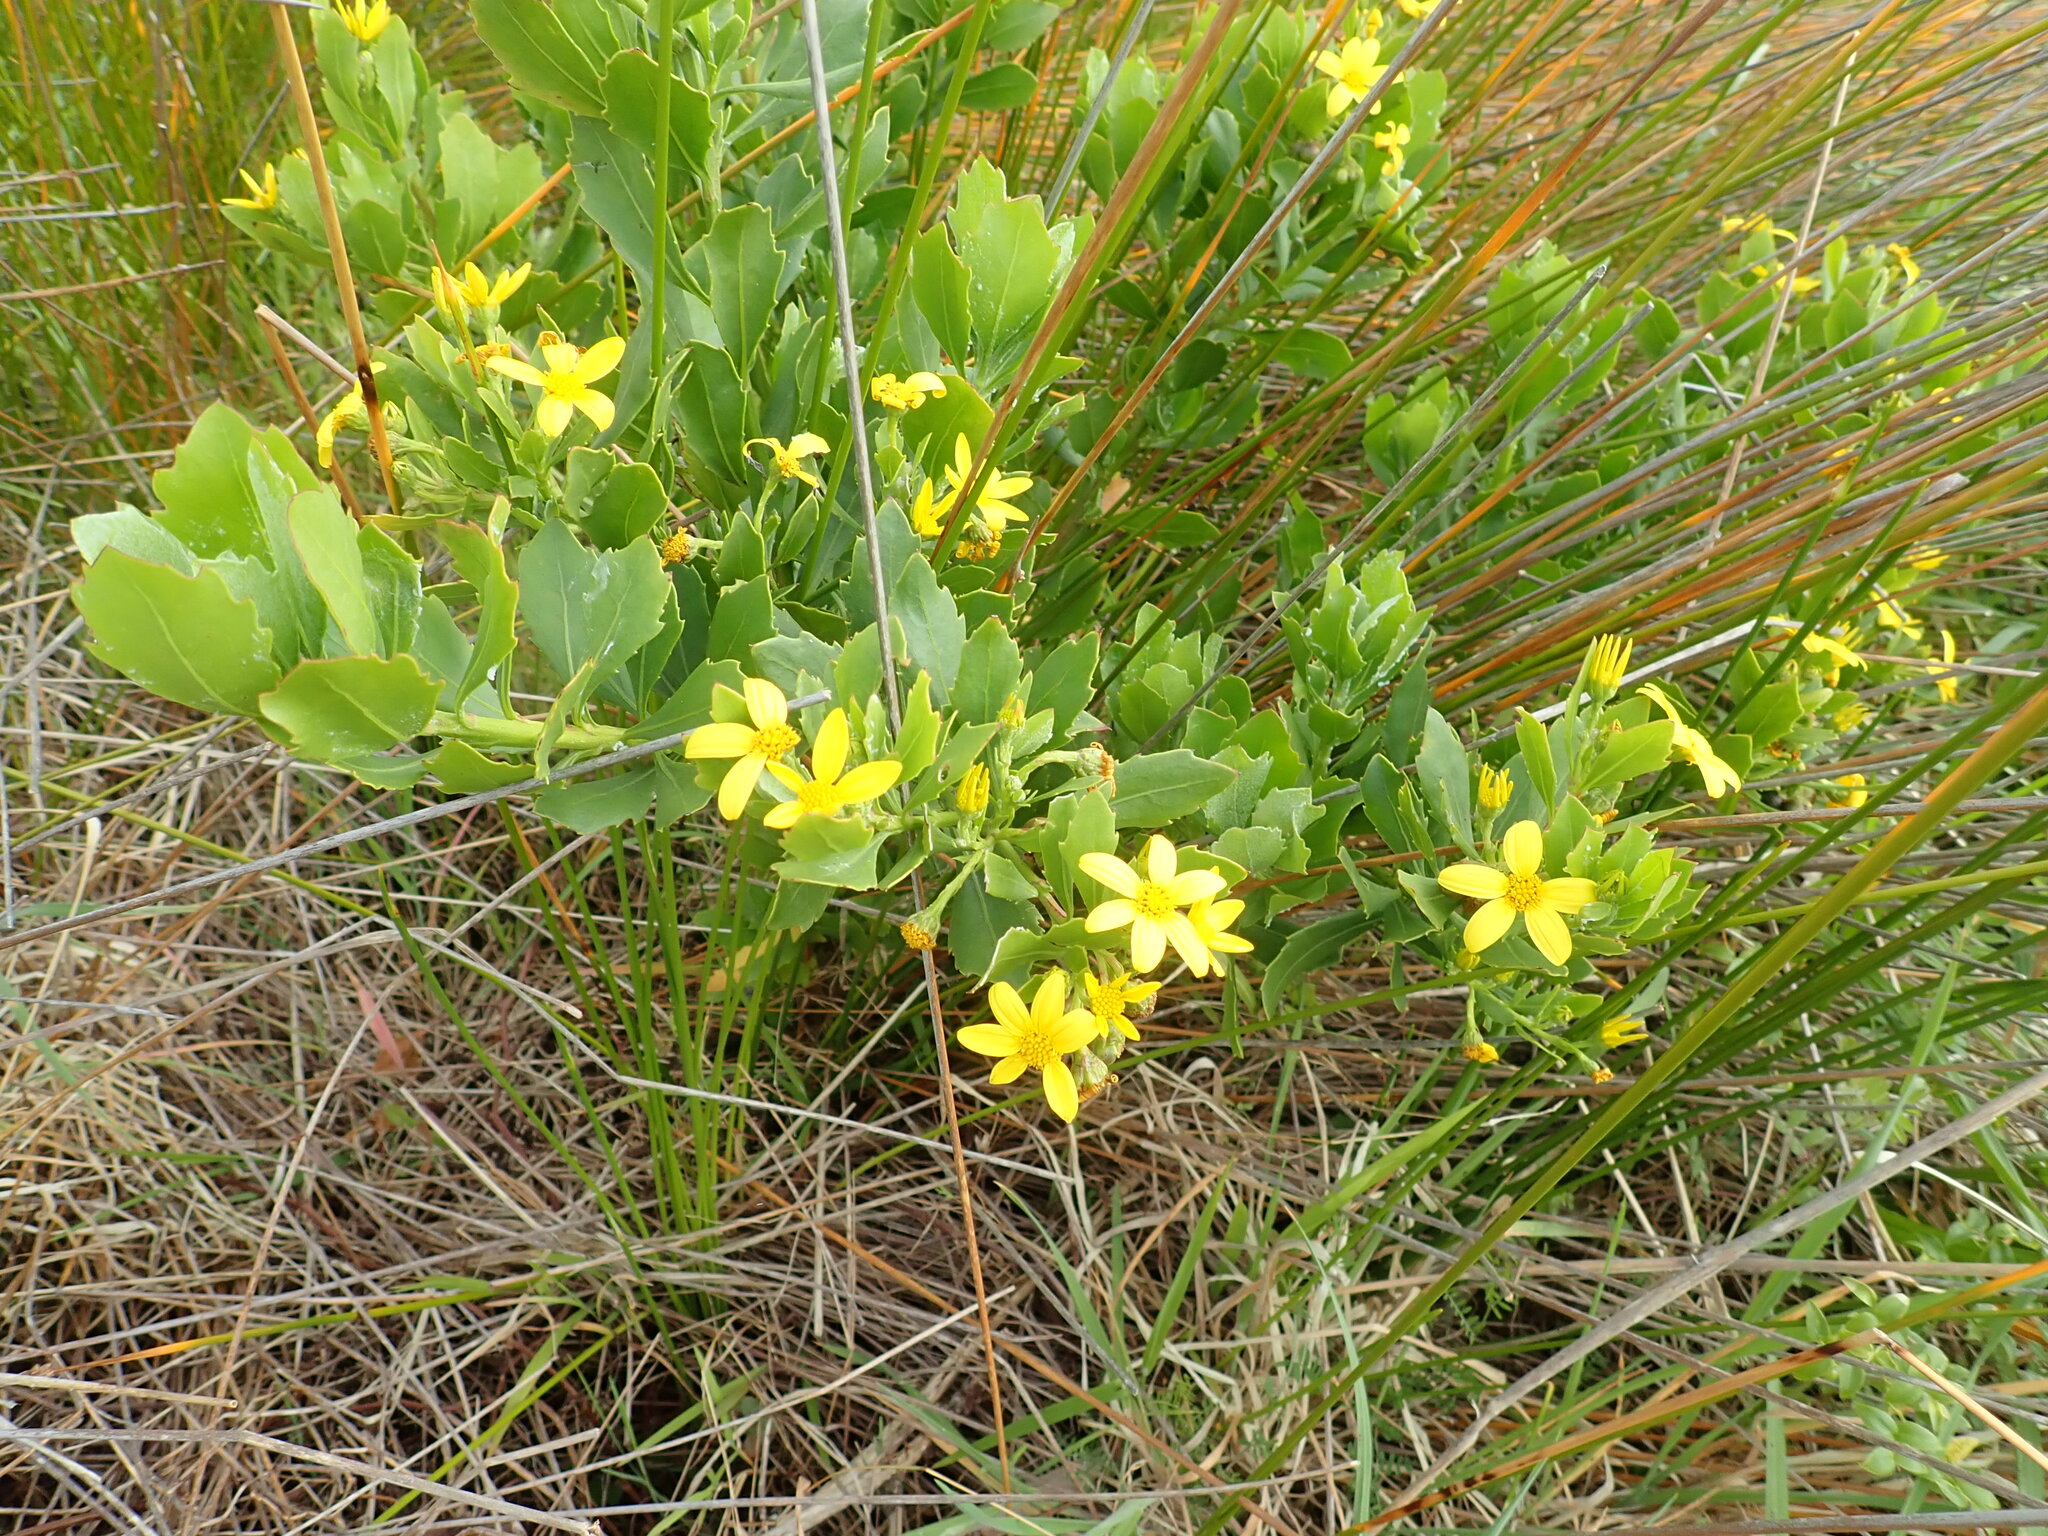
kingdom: Plantae
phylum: Tracheophyta
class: Magnoliopsida
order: Asterales
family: Asteraceae
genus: Osteospermum
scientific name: Osteospermum moniliferum
